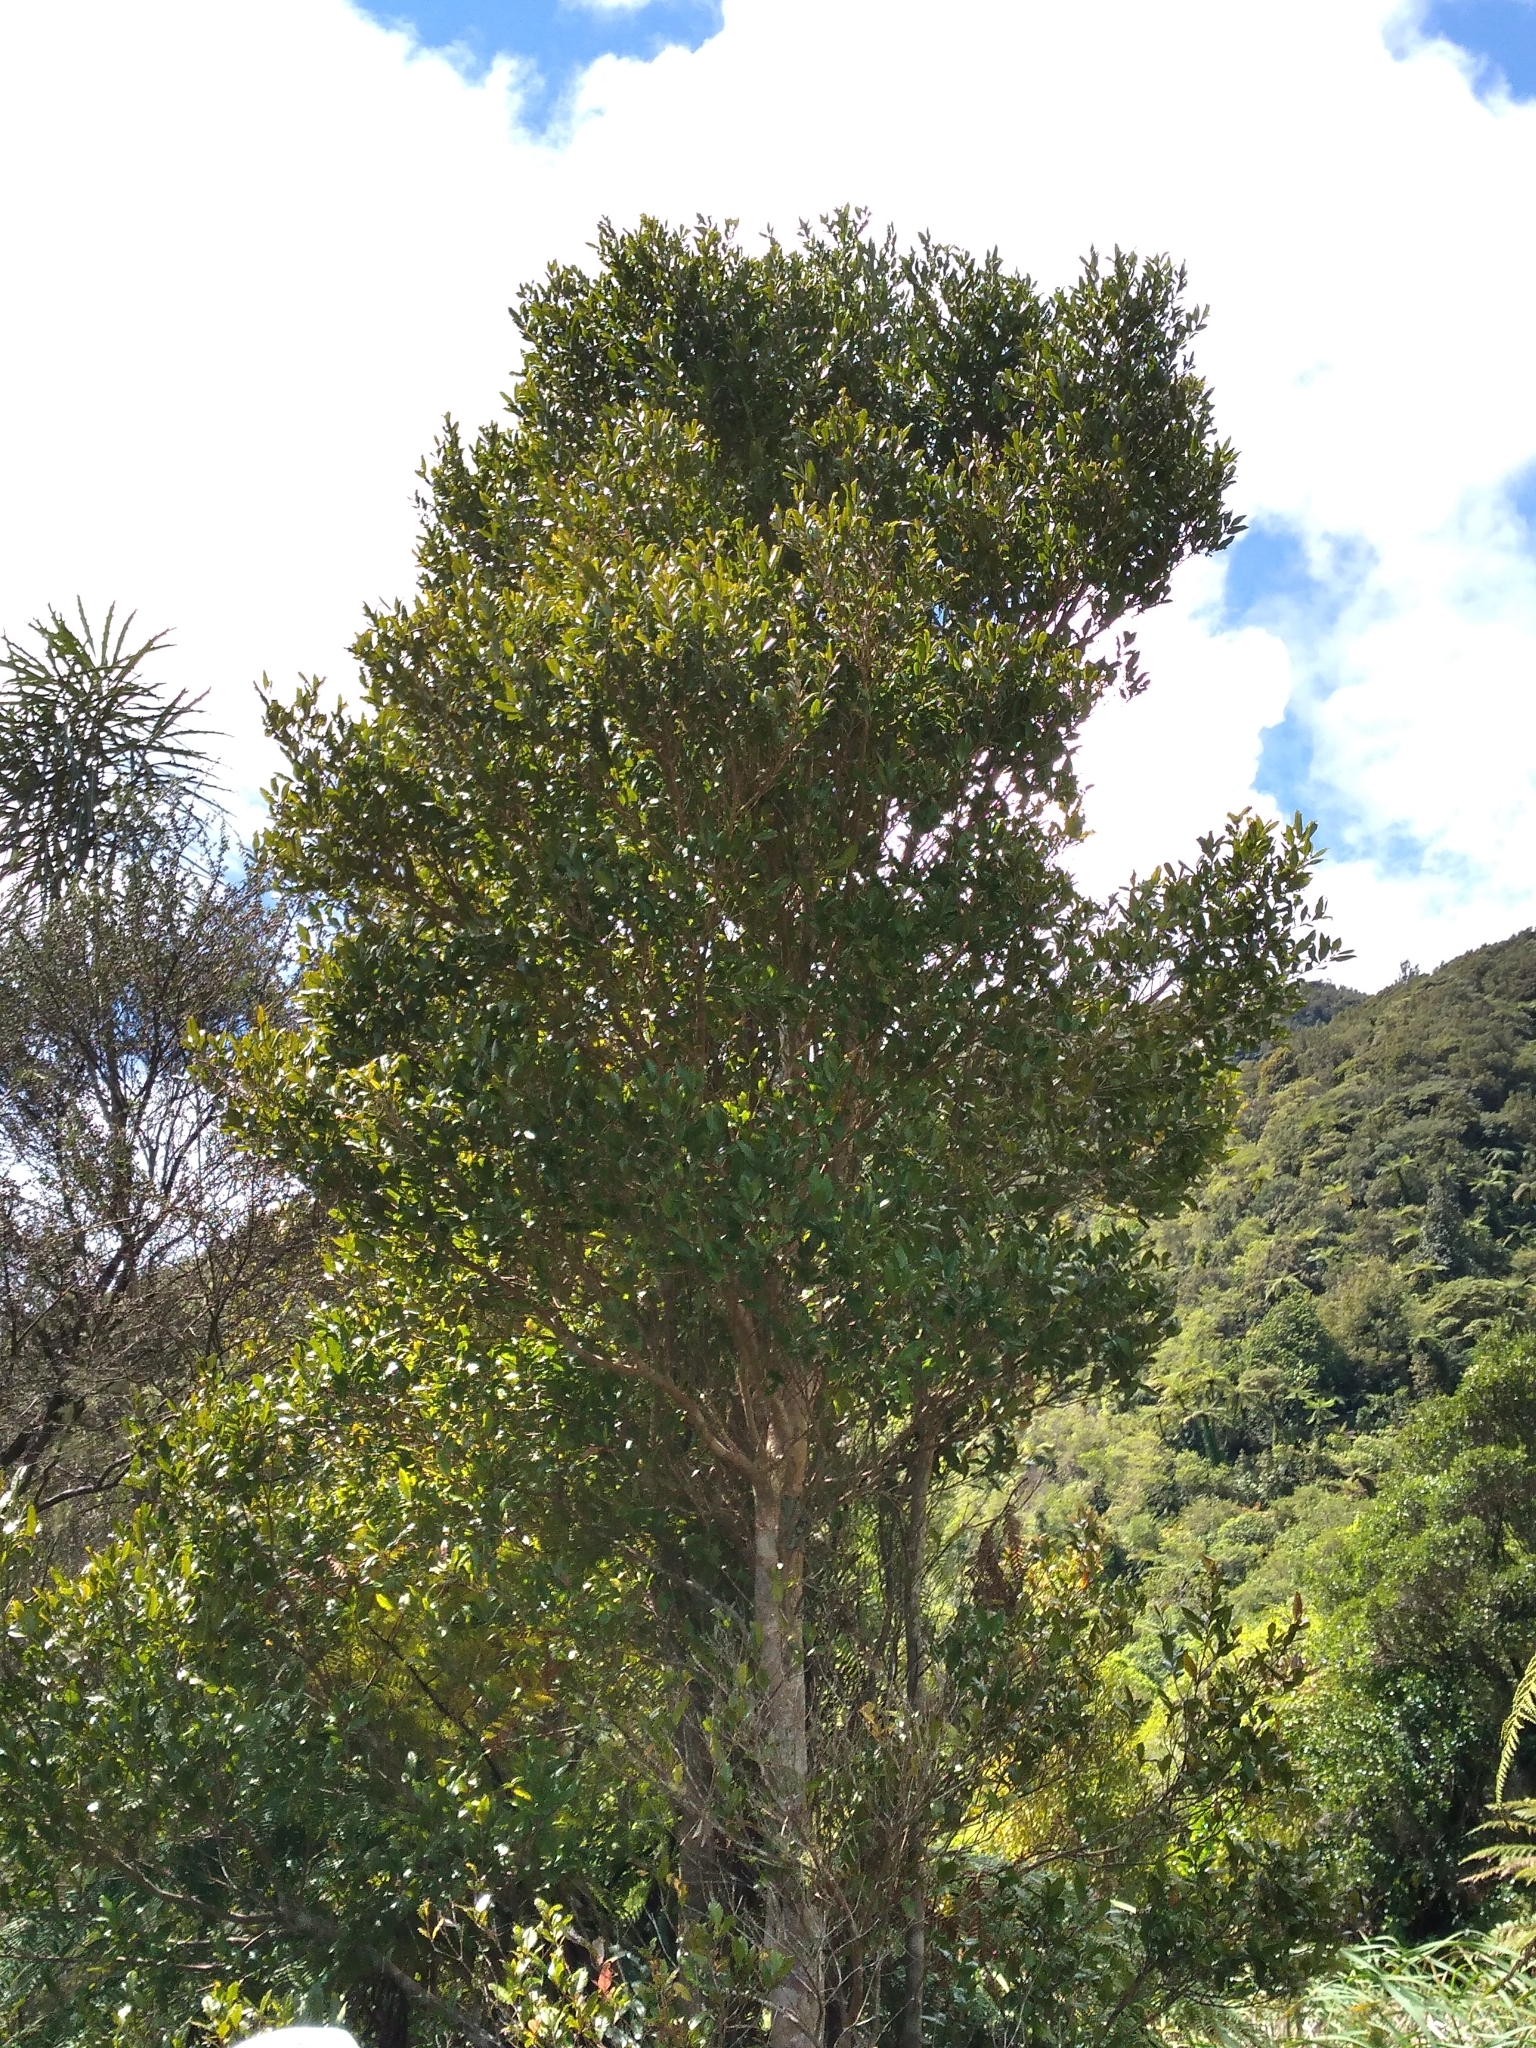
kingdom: Plantae
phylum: Tracheophyta
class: Magnoliopsida
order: Myrtales
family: Myrtaceae
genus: Syzygium
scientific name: Syzygium maire
